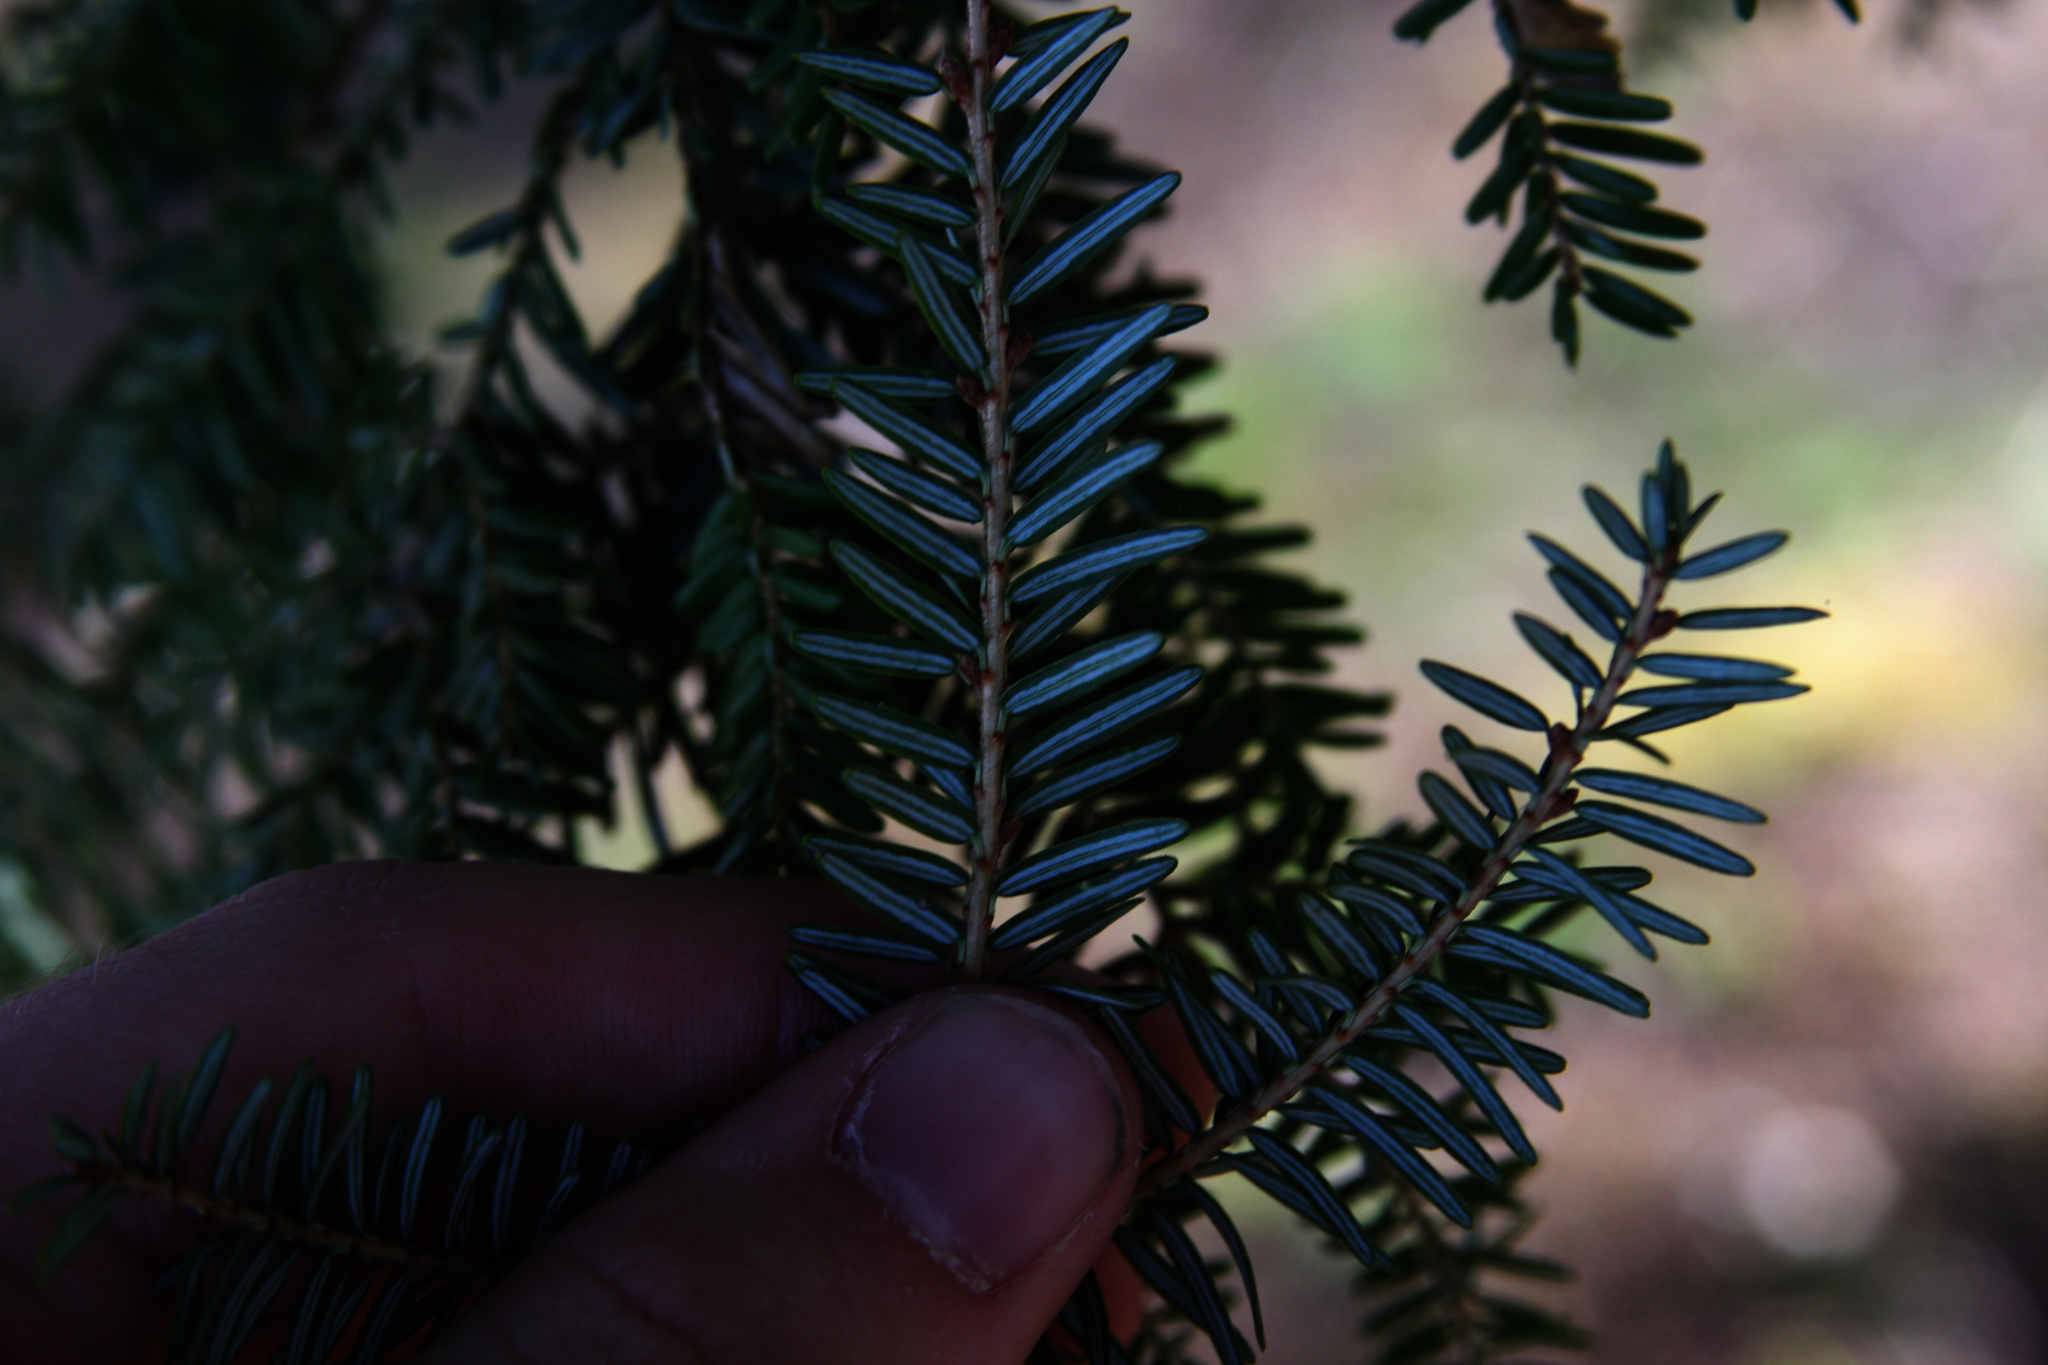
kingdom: Plantae
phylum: Tracheophyta
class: Pinopsida
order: Pinales
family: Pinaceae
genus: Tsuga
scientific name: Tsuga canadensis
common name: Eastern hemlock
